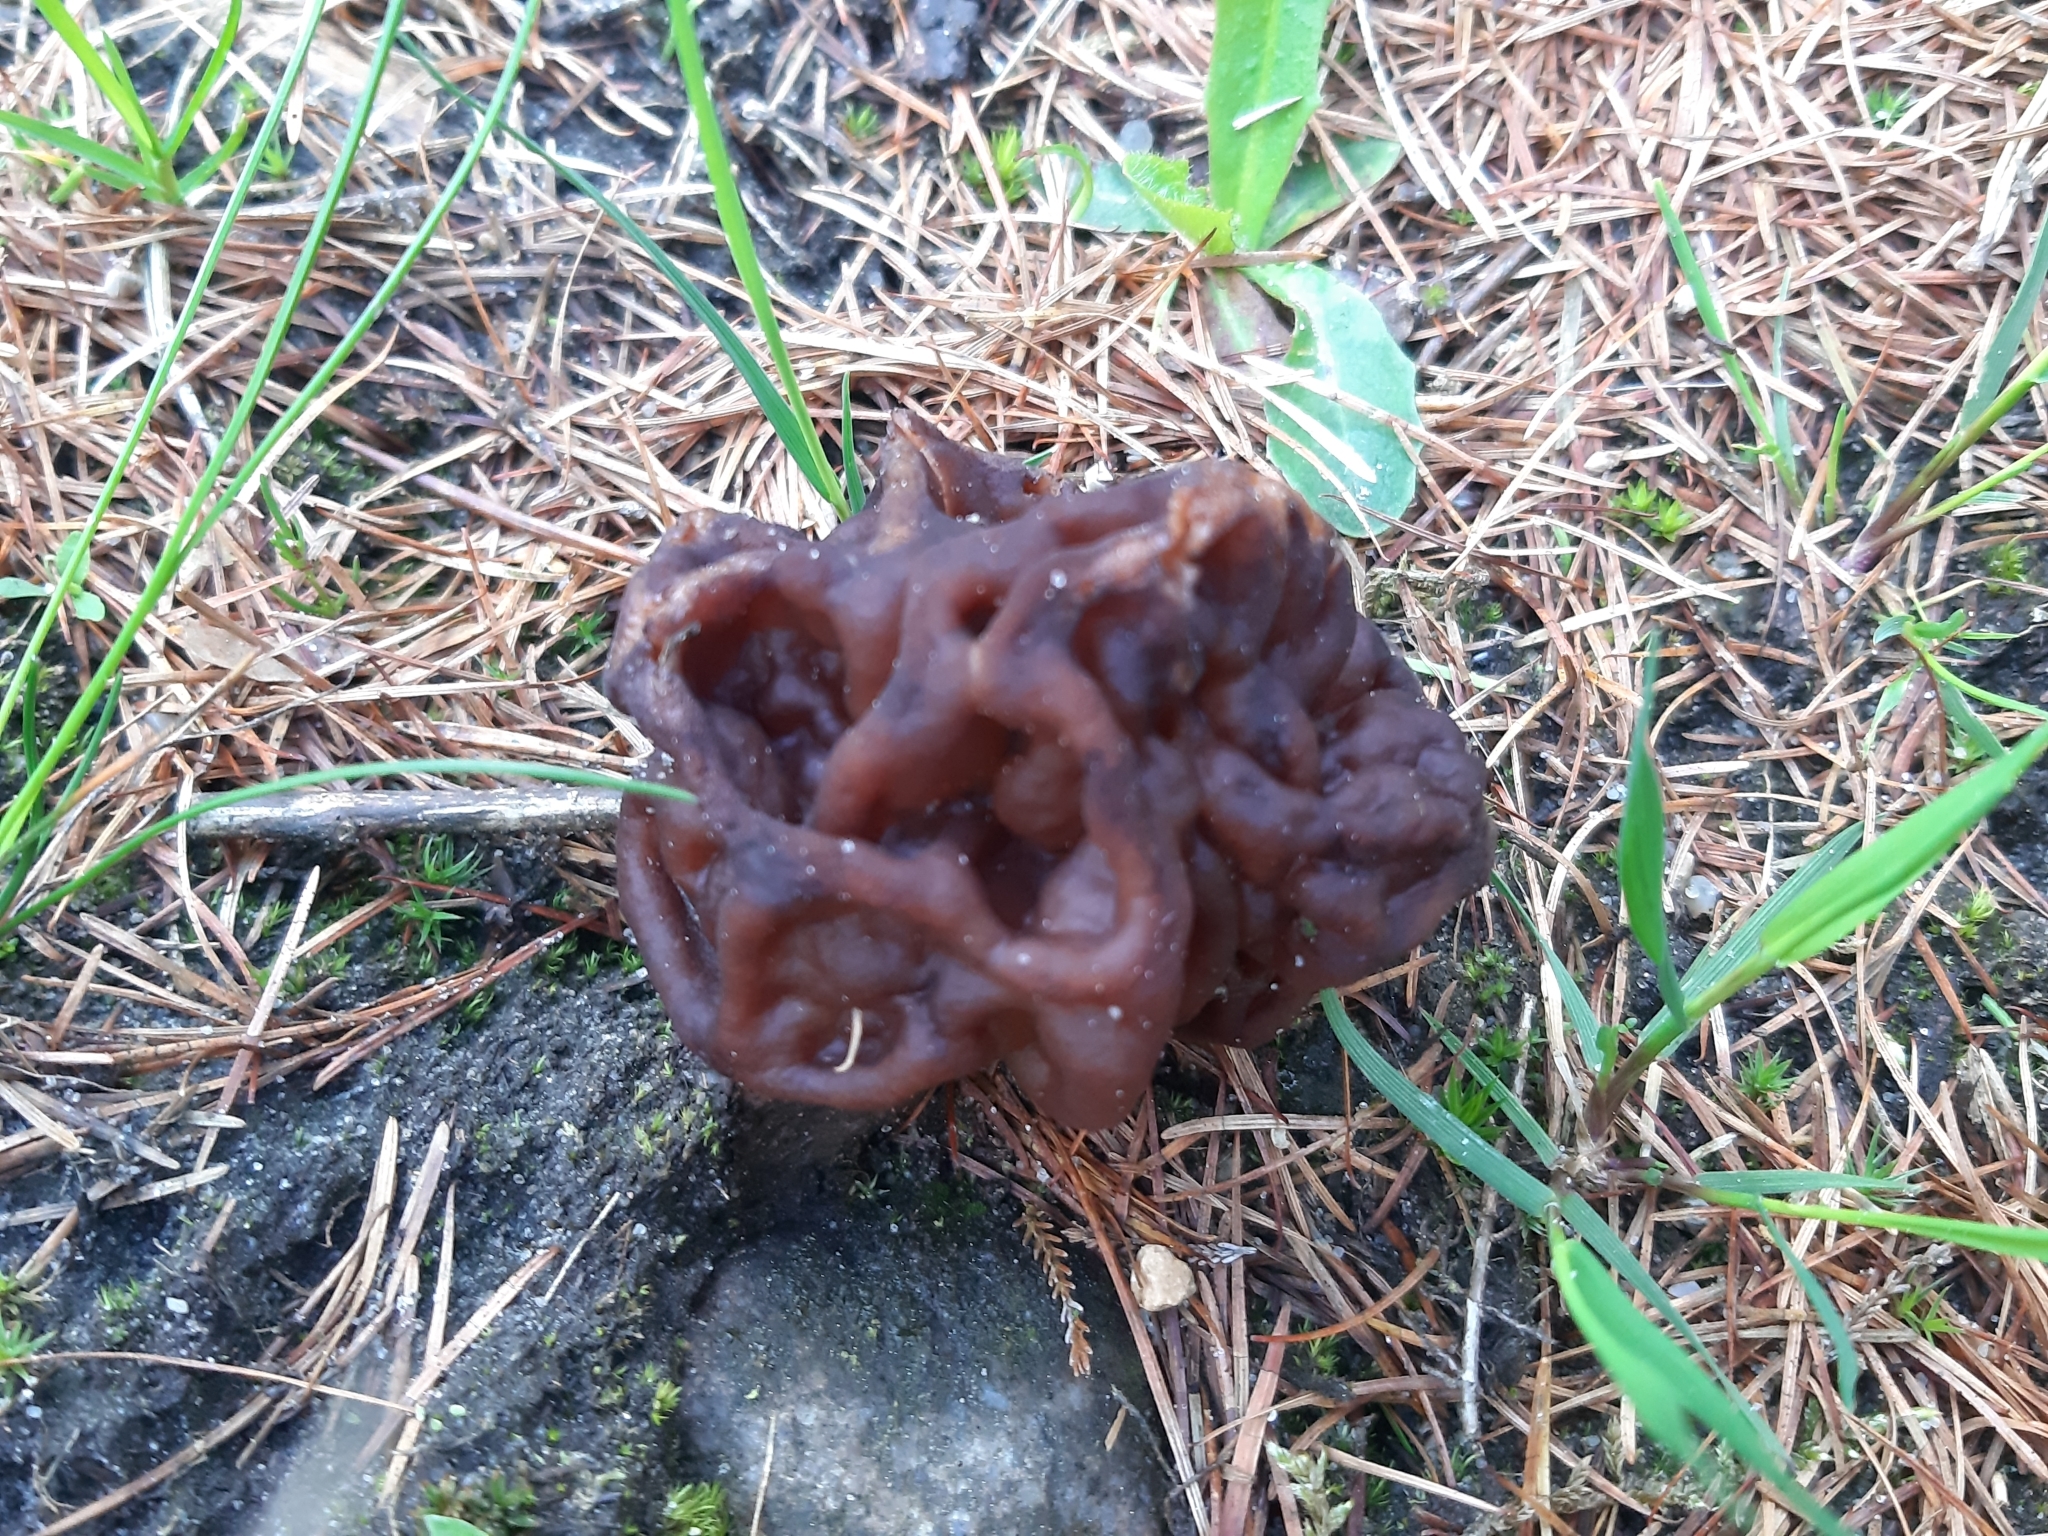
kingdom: Fungi
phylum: Ascomycota
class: Pezizomycetes
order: Pezizales
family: Discinaceae
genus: Gyromitra
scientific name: Gyromitra esculenta
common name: False morel
